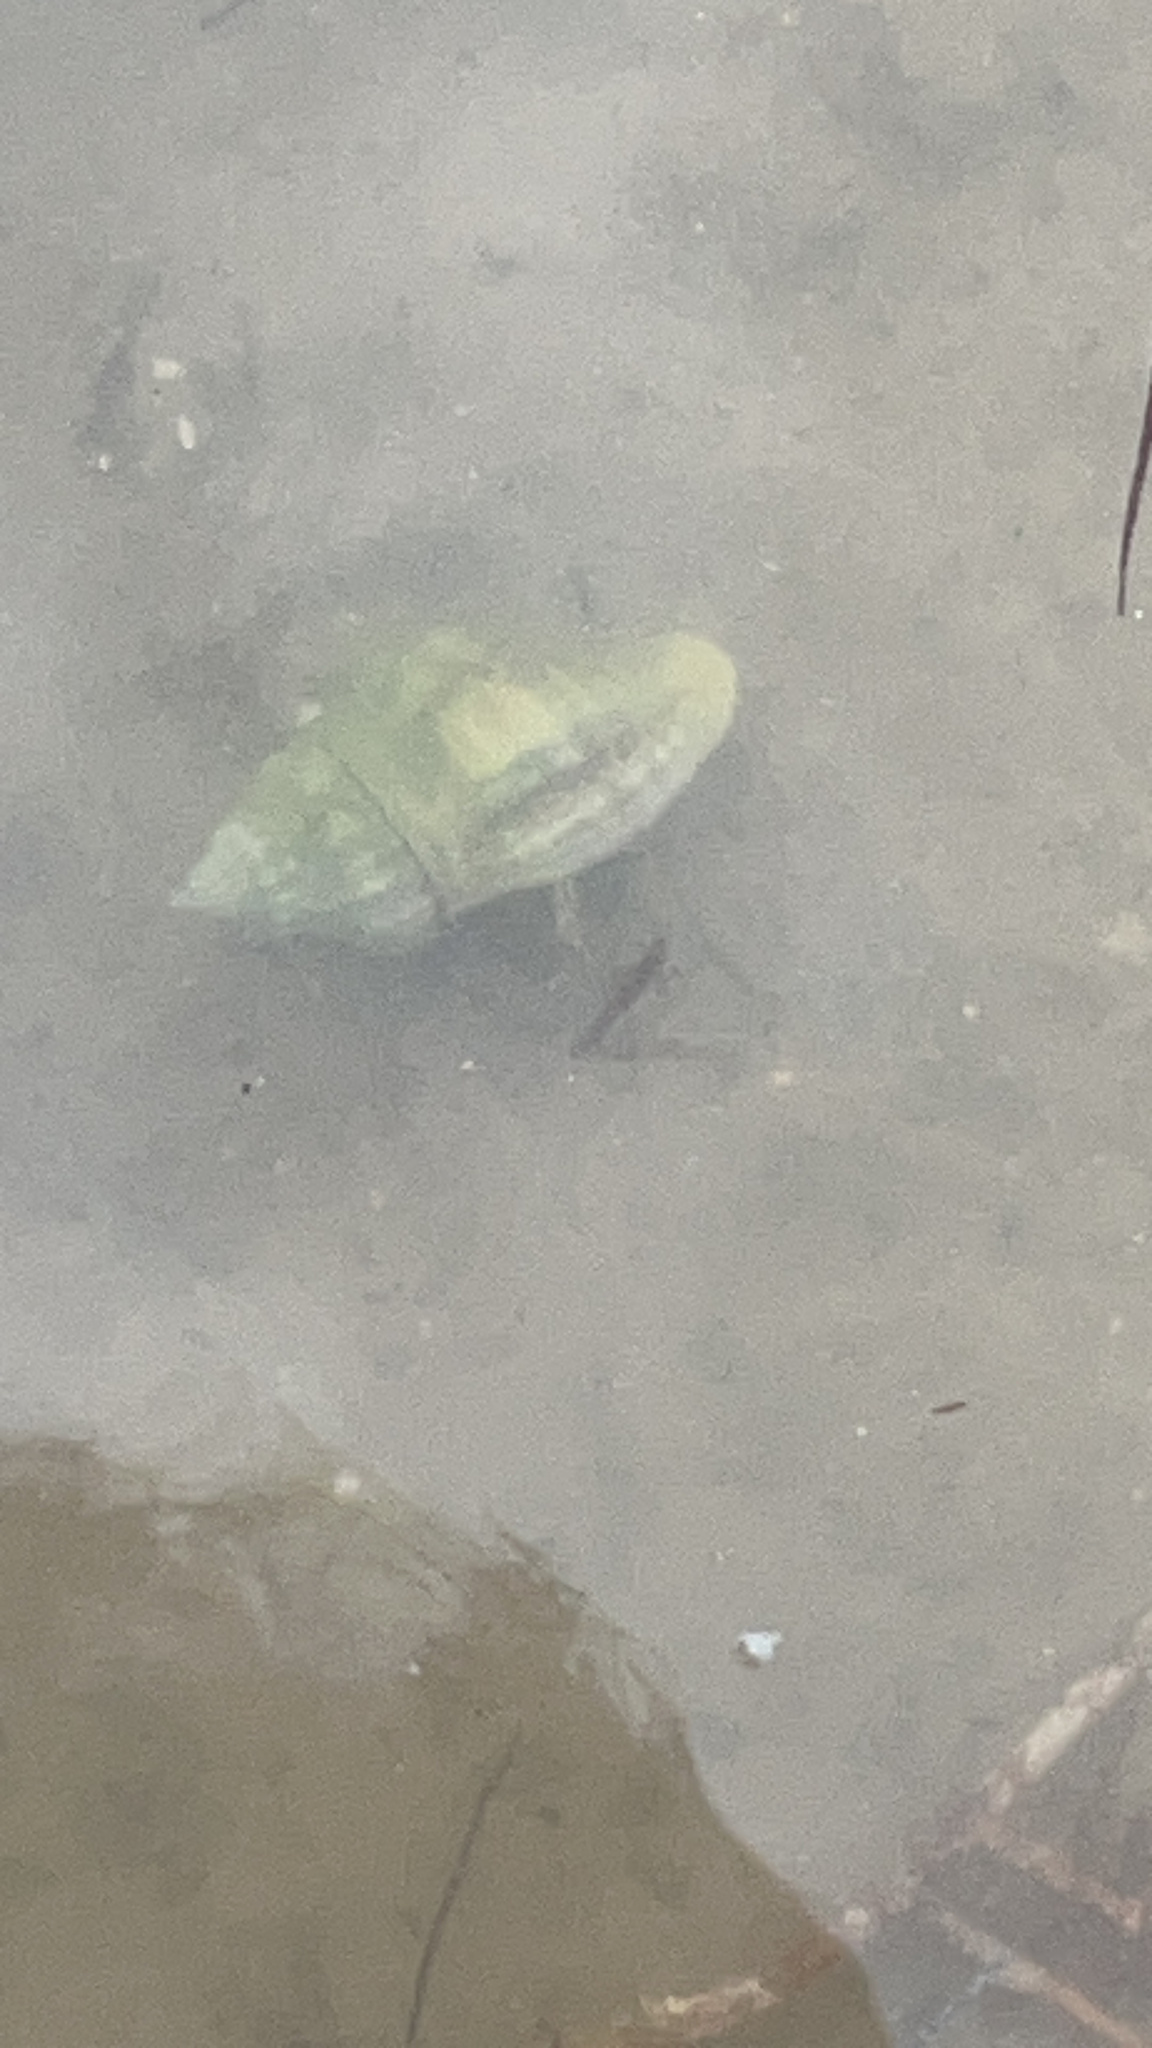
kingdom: Animalia
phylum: Arthropoda
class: Malacostraca
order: Decapoda
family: Diogenidae
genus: Clibanarius
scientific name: Clibanarius vittatus
